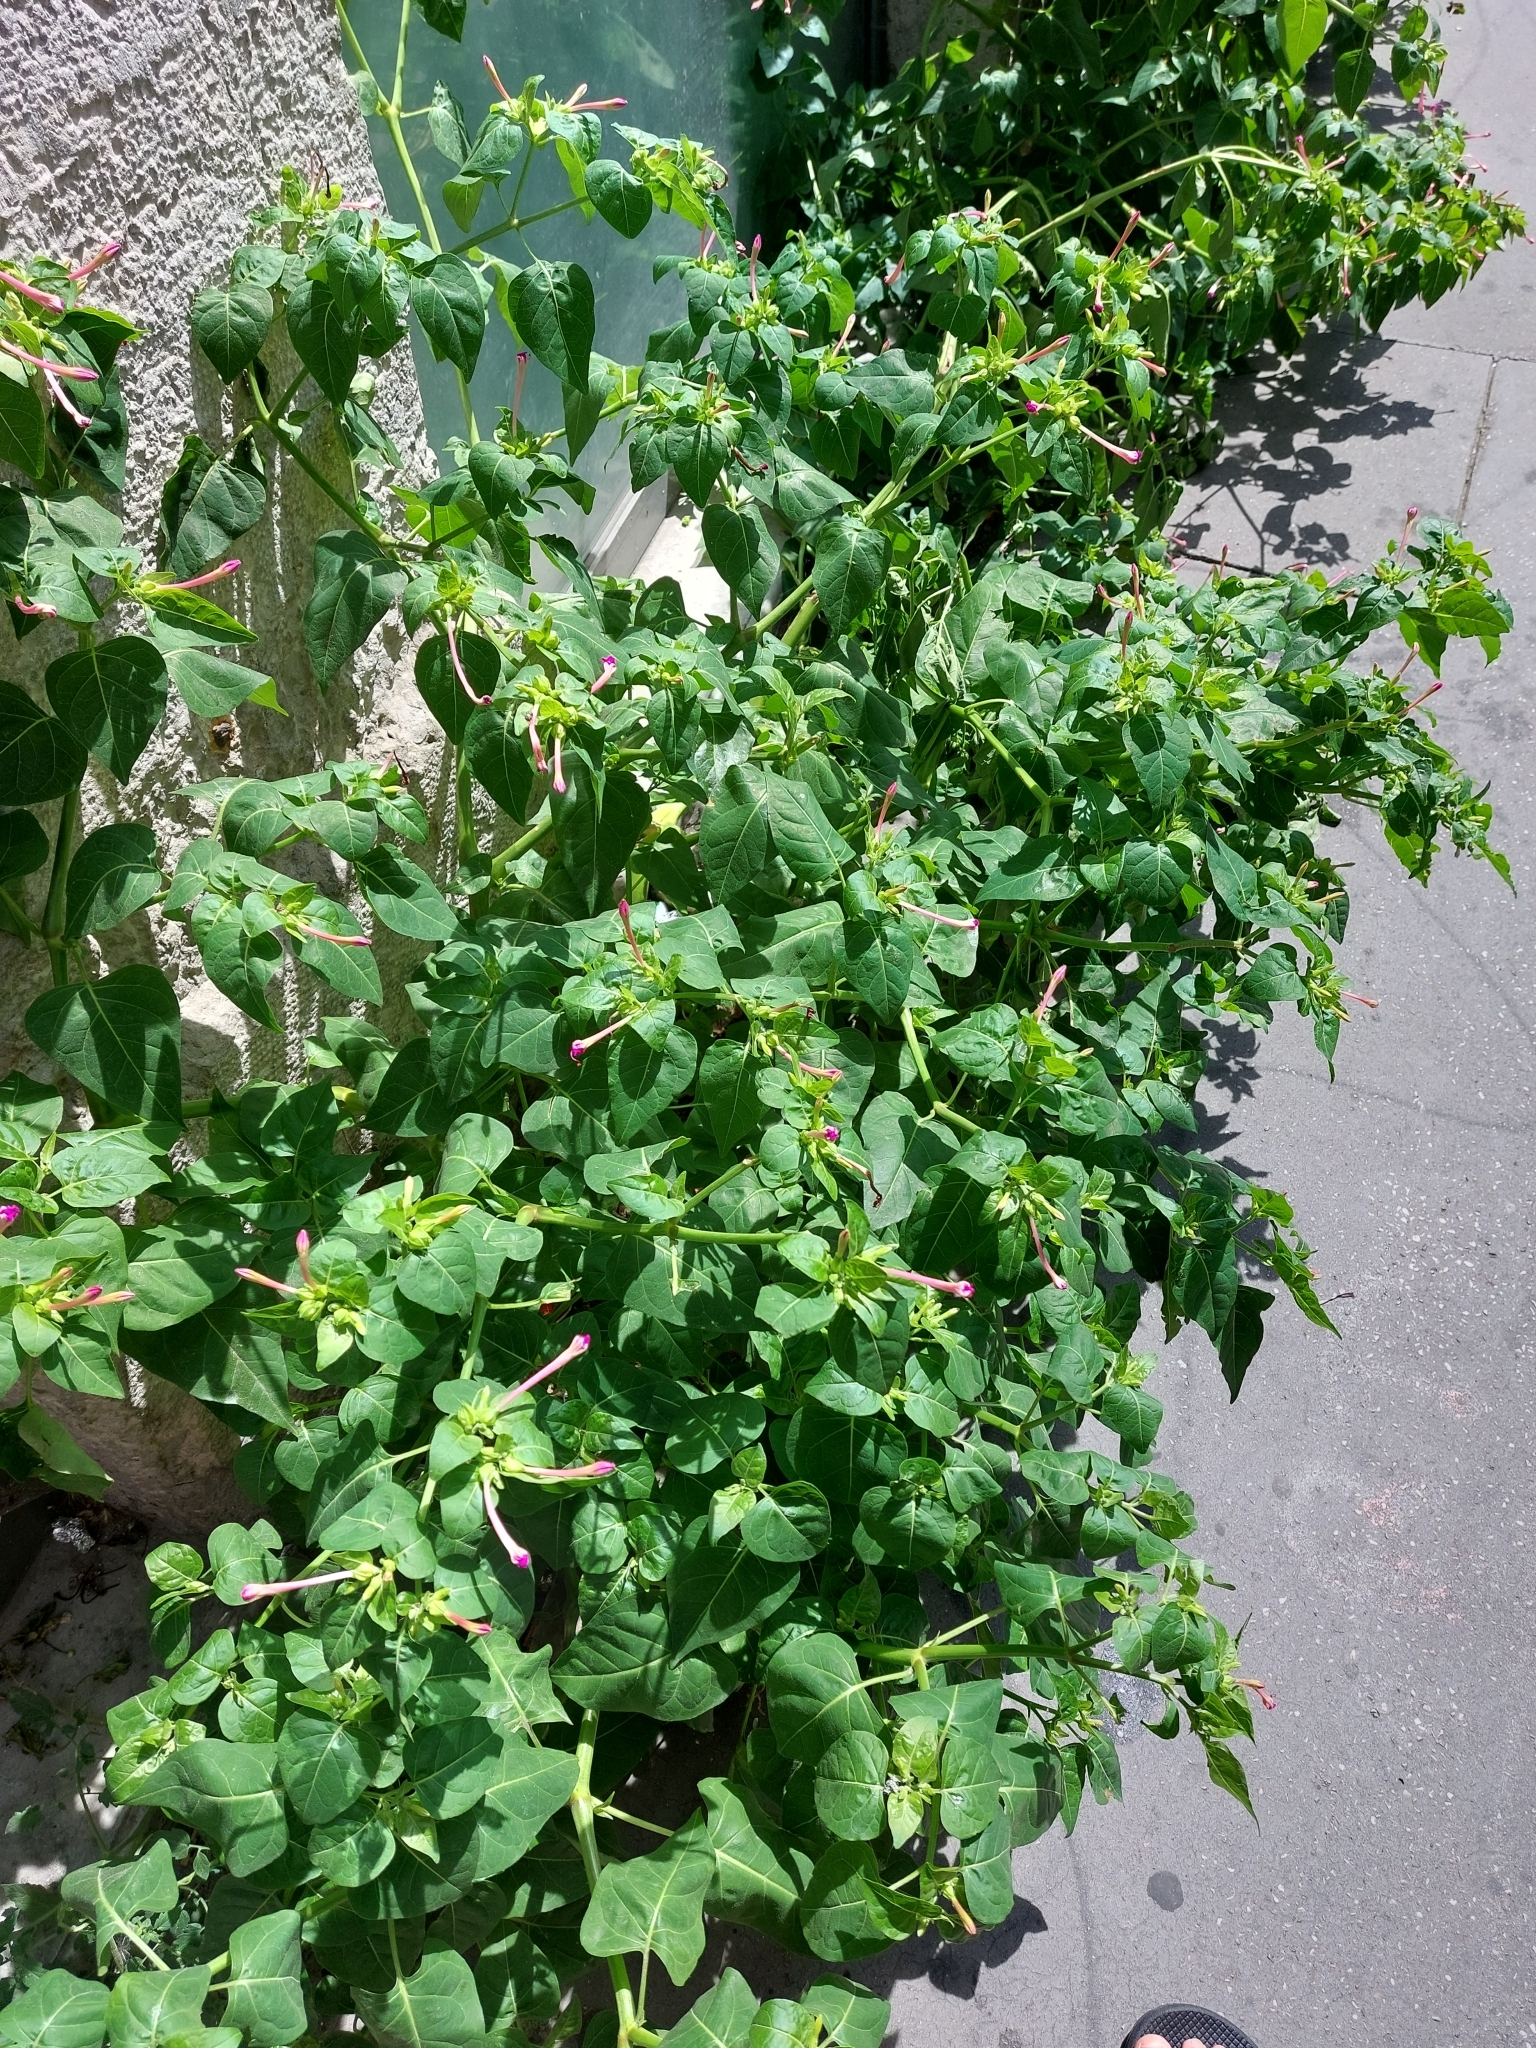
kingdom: Plantae
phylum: Tracheophyta
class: Magnoliopsida
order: Caryophyllales
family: Nyctaginaceae
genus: Mirabilis
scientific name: Mirabilis jalapa
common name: Marvel-of-peru
